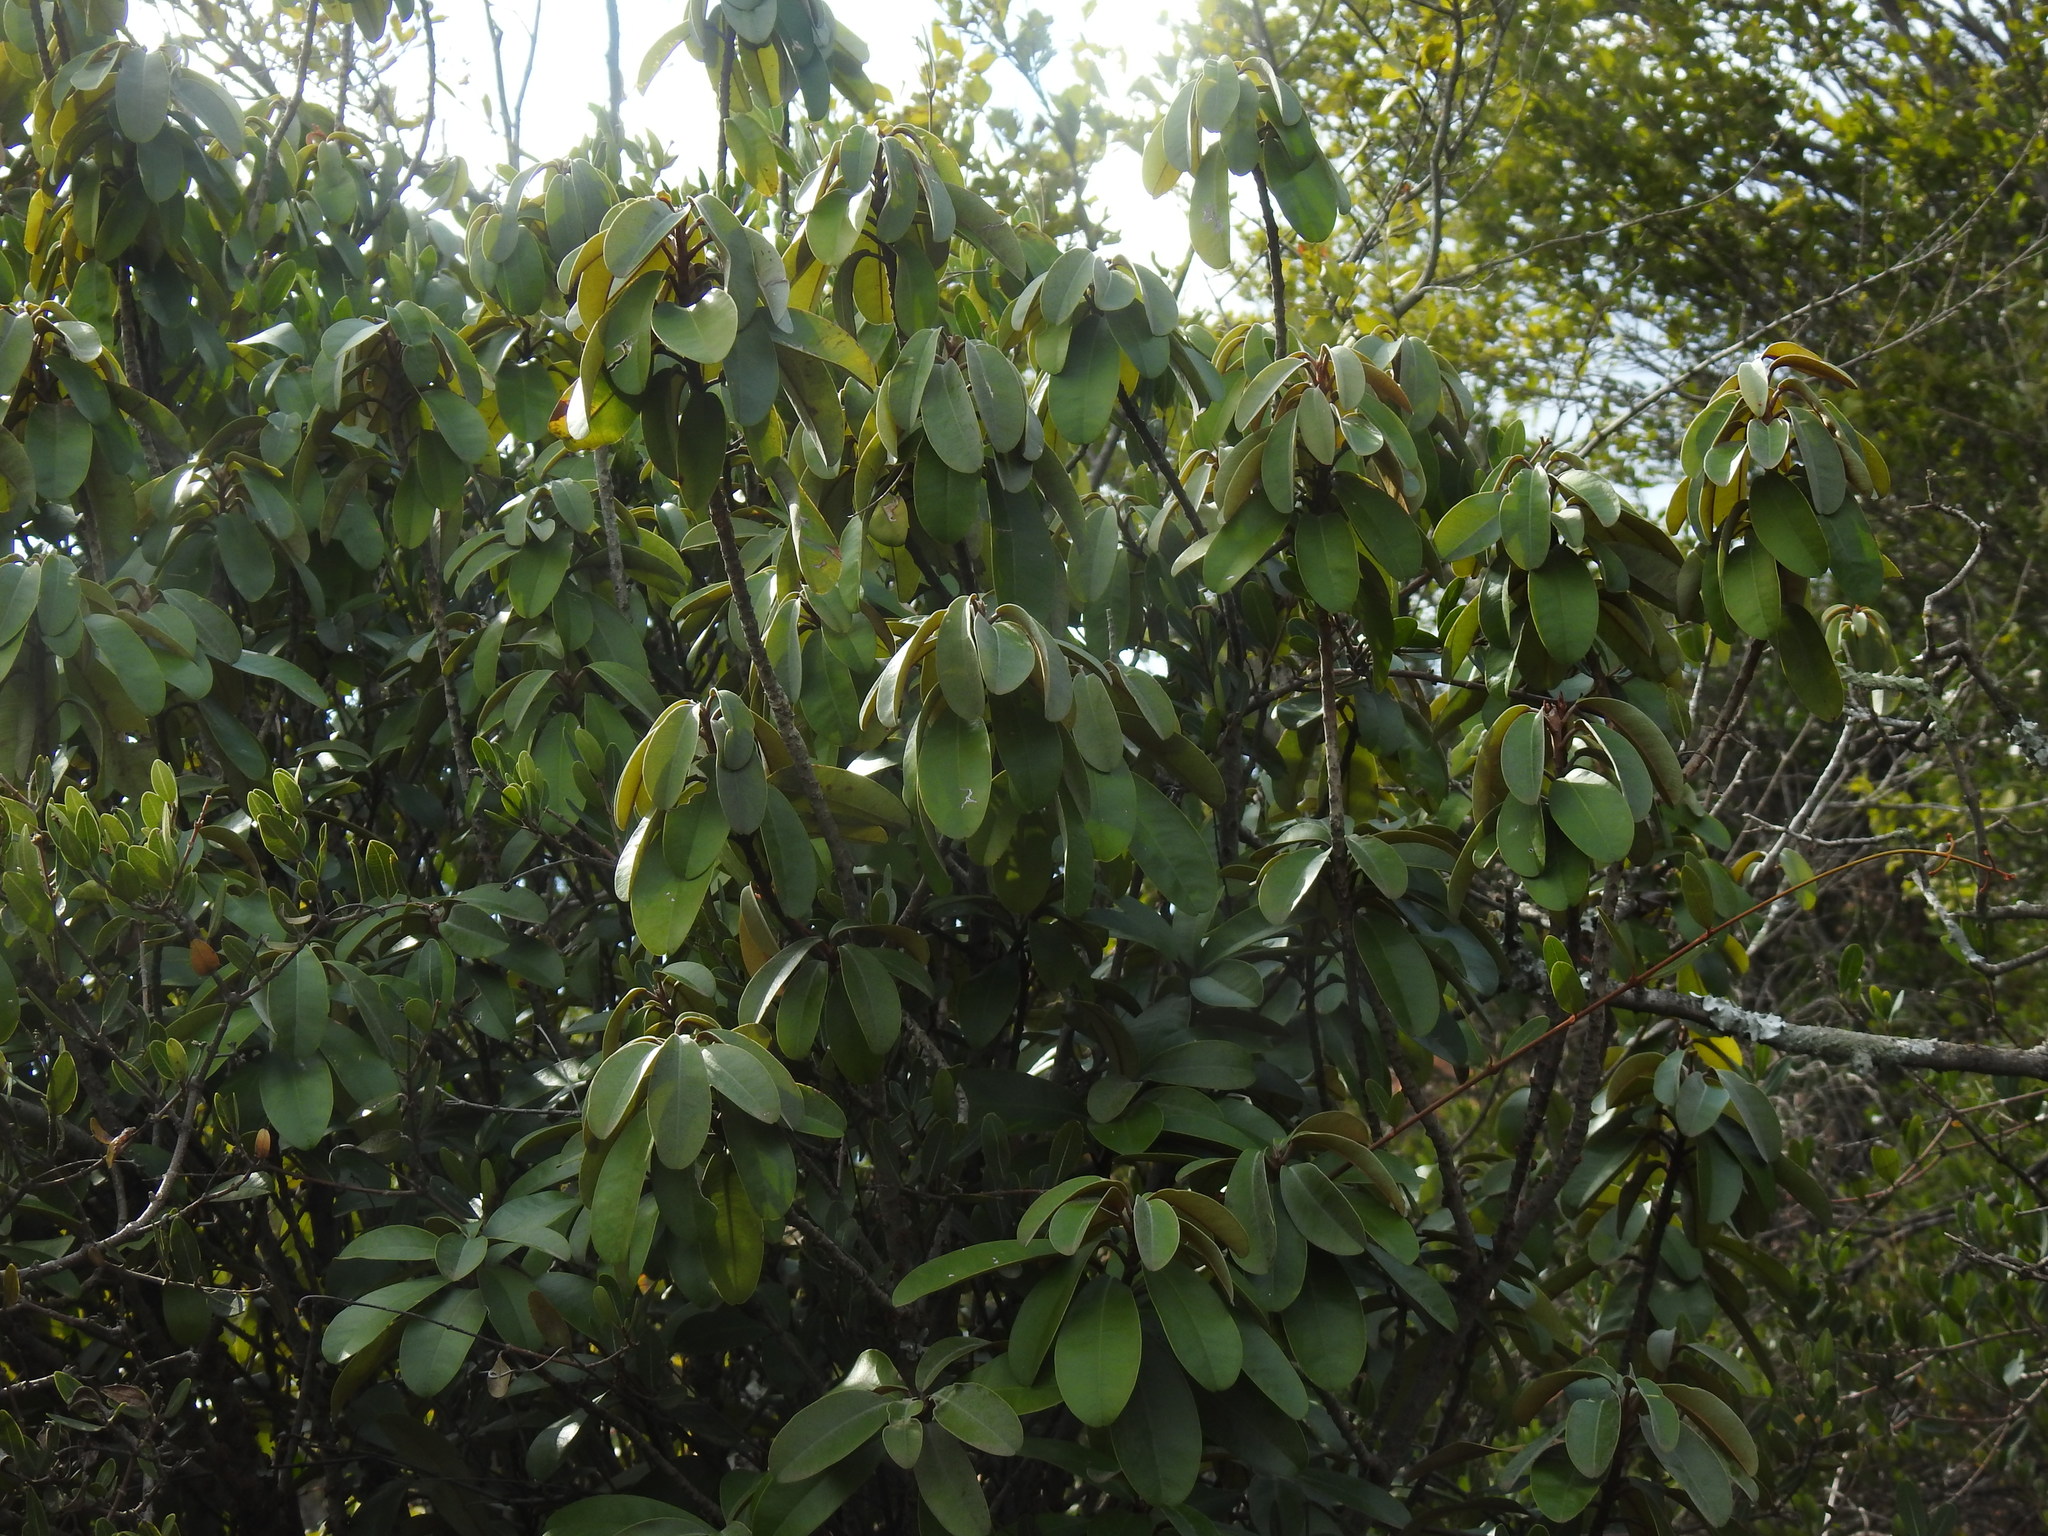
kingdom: Plantae
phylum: Tracheophyta
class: Magnoliopsida
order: Ericales
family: Sapotaceae
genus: Englerophytum
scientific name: Englerophytum magalismontanum
